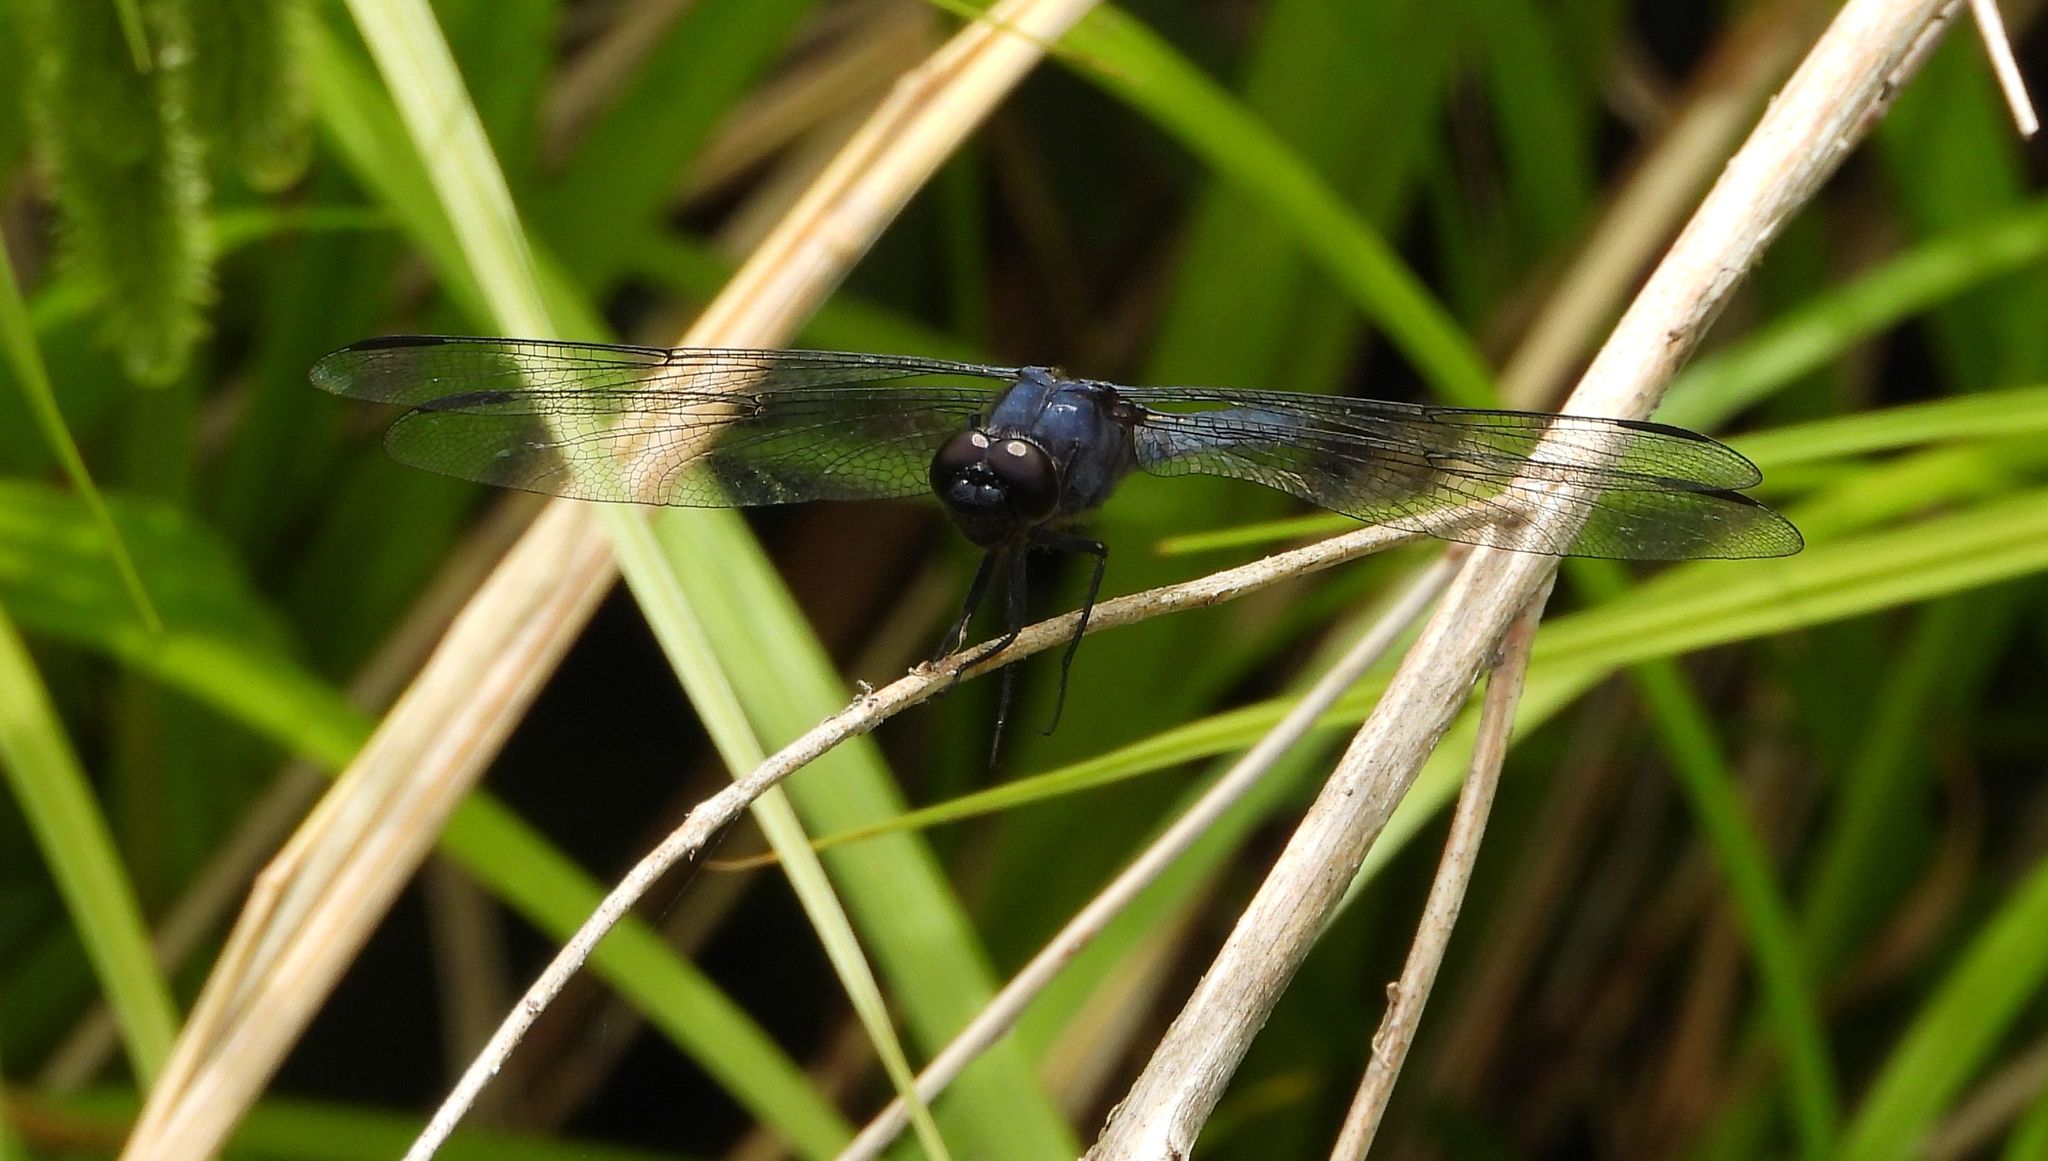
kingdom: Animalia
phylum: Arthropoda
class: Insecta
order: Odonata
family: Libellulidae
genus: Libellula
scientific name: Libellula incesta
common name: Slaty skimmer
